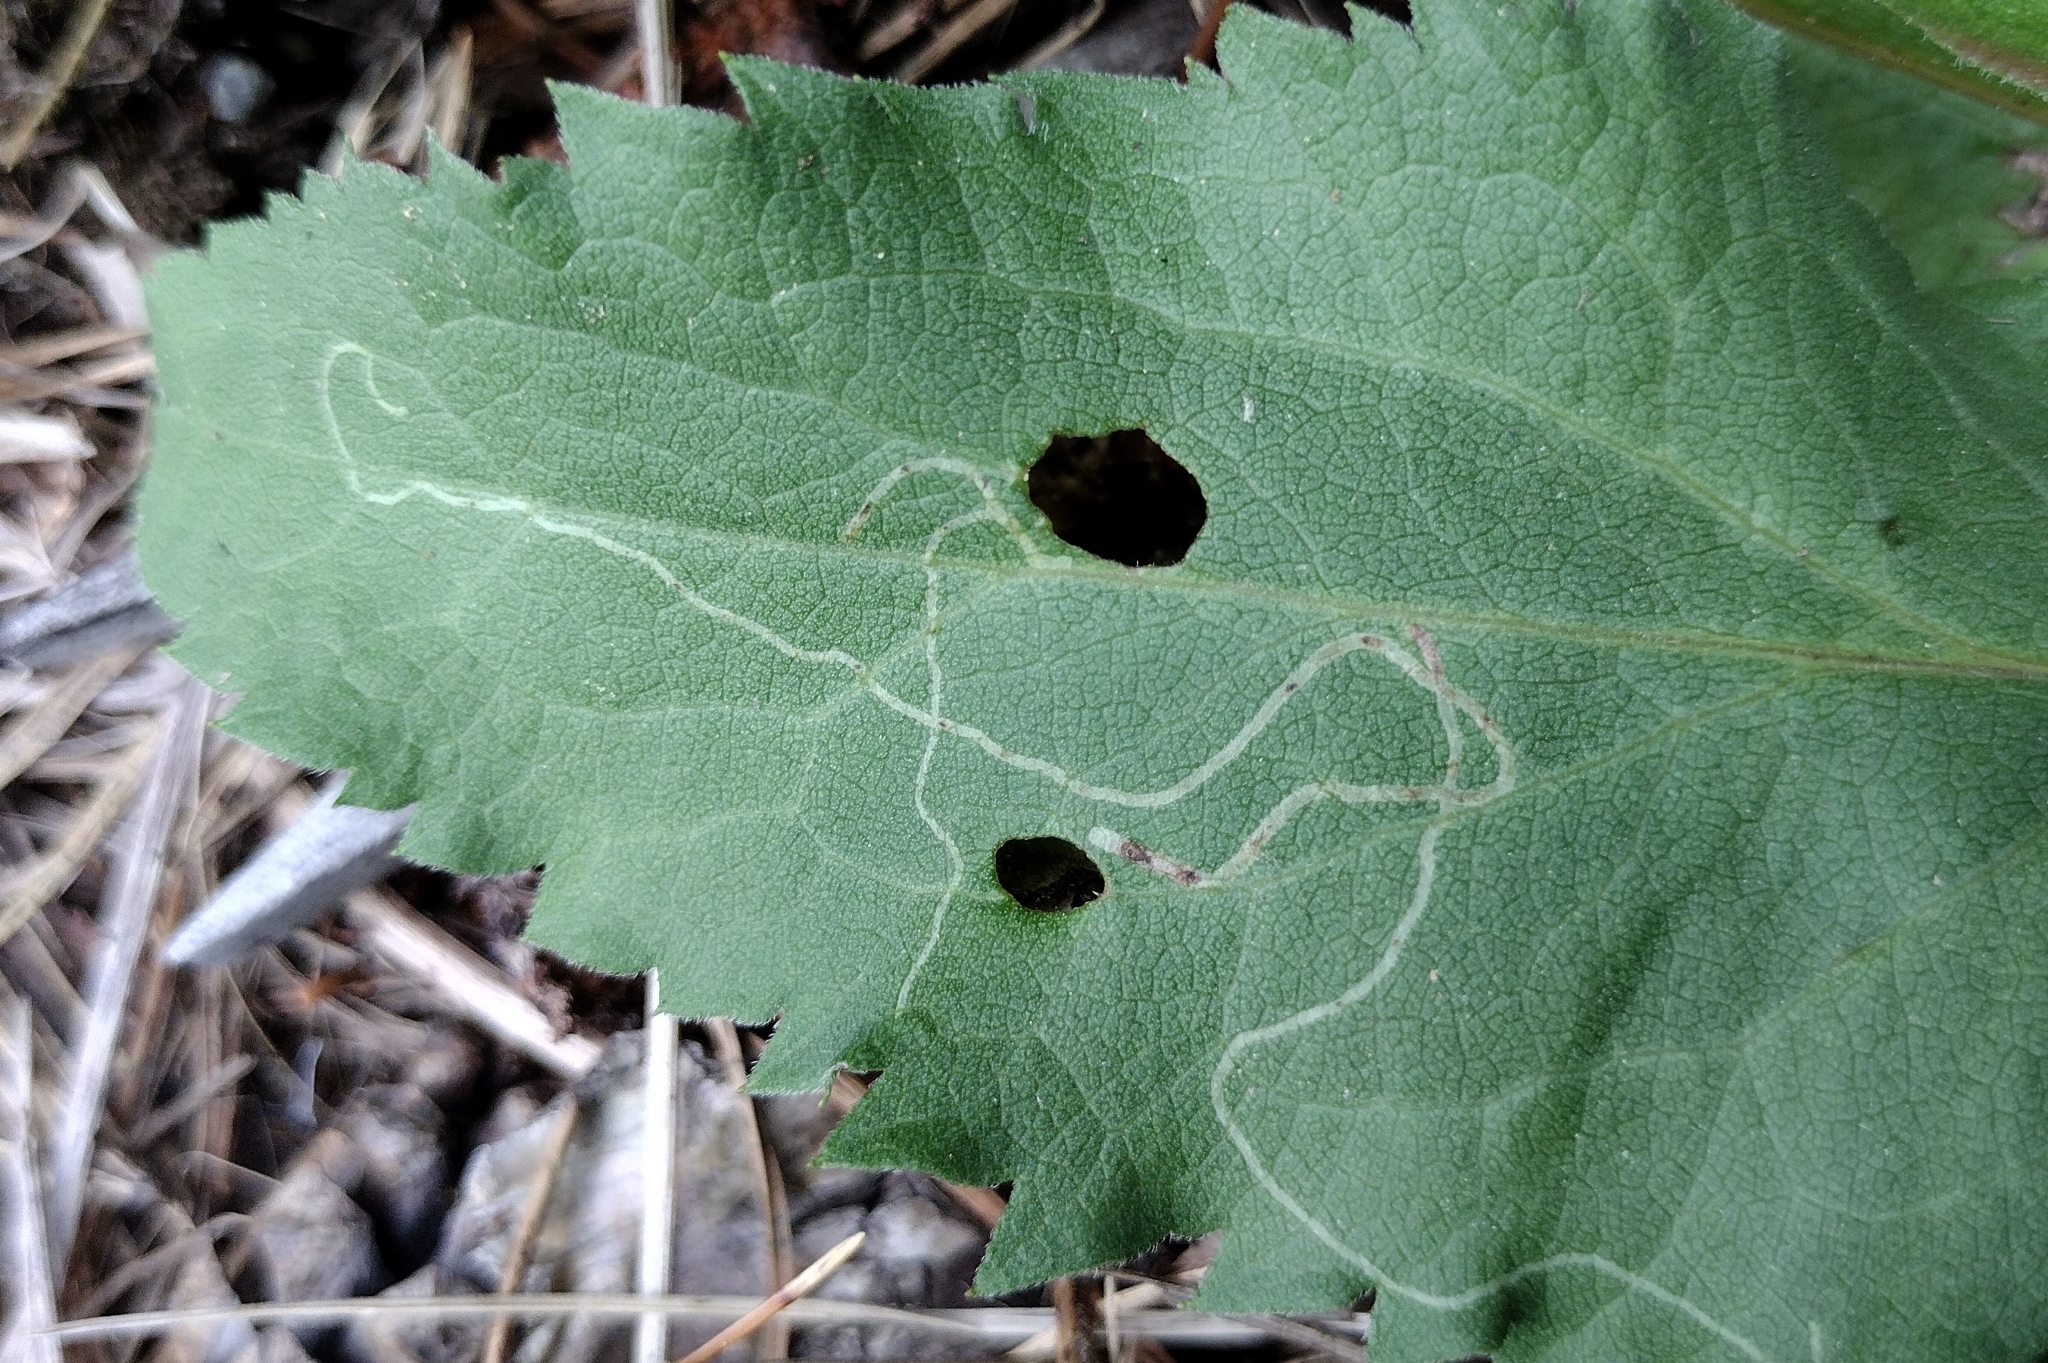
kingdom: Animalia
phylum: Arthropoda
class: Insecta
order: Diptera
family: Agromyzidae
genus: Ophiomyia
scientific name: Ophiomyia maura
